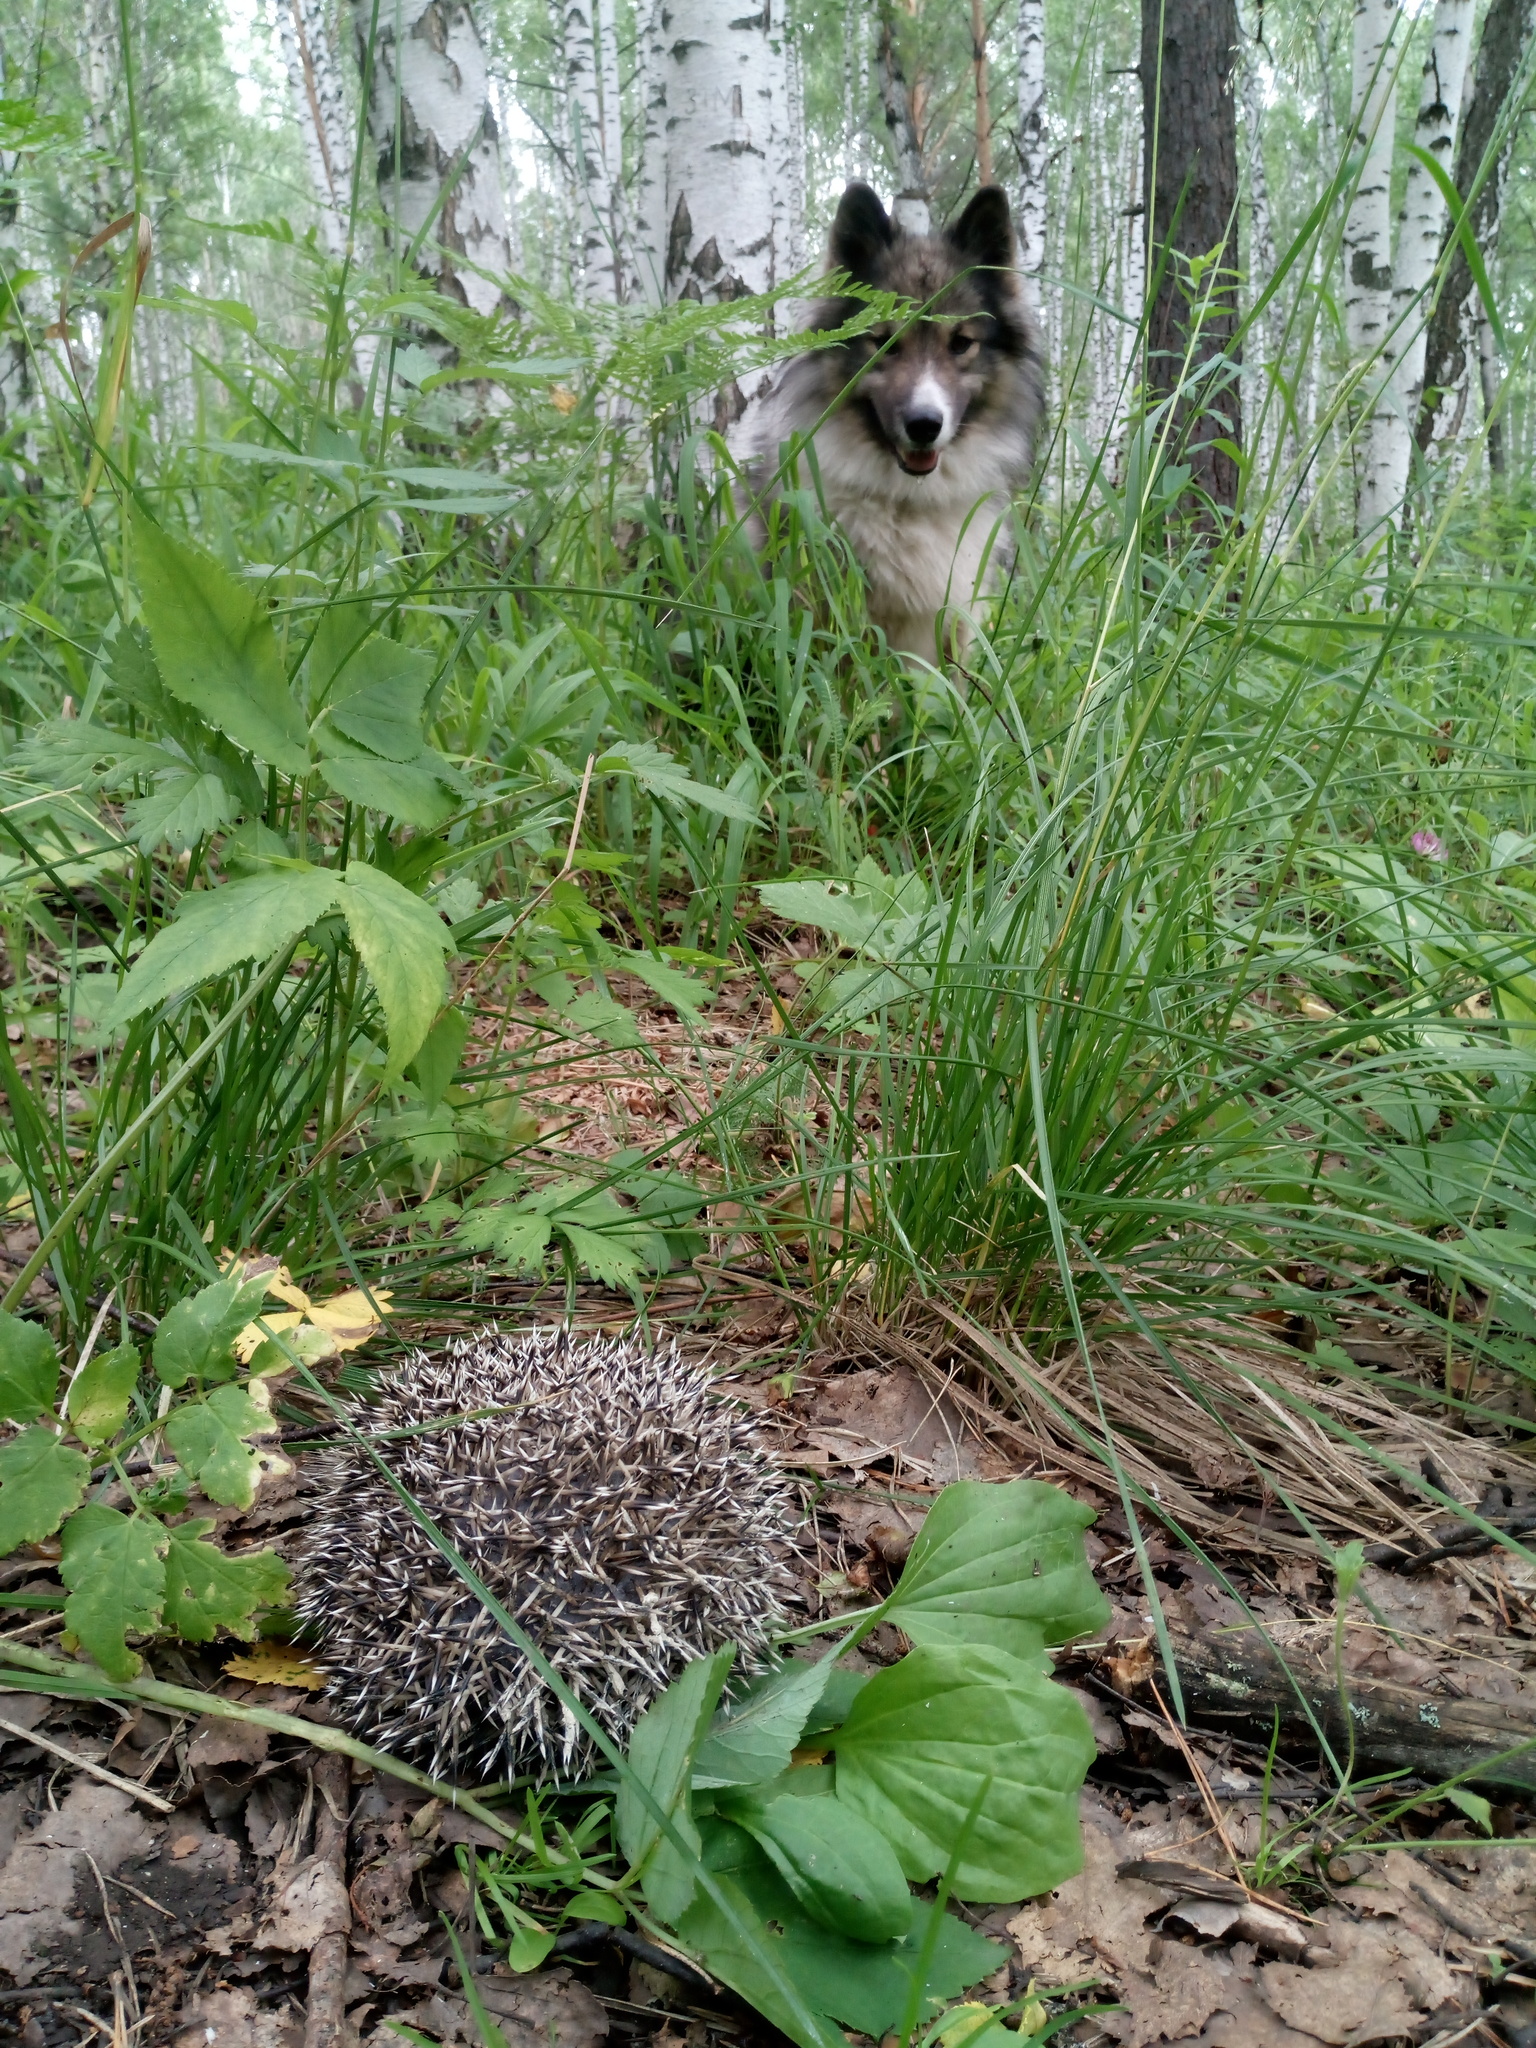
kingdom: Animalia
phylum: Chordata
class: Mammalia
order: Erinaceomorpha
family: Erinaceidae
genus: Erinaceus
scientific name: Erinaceus roumanicus
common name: Northern white-breasted hedgehog
